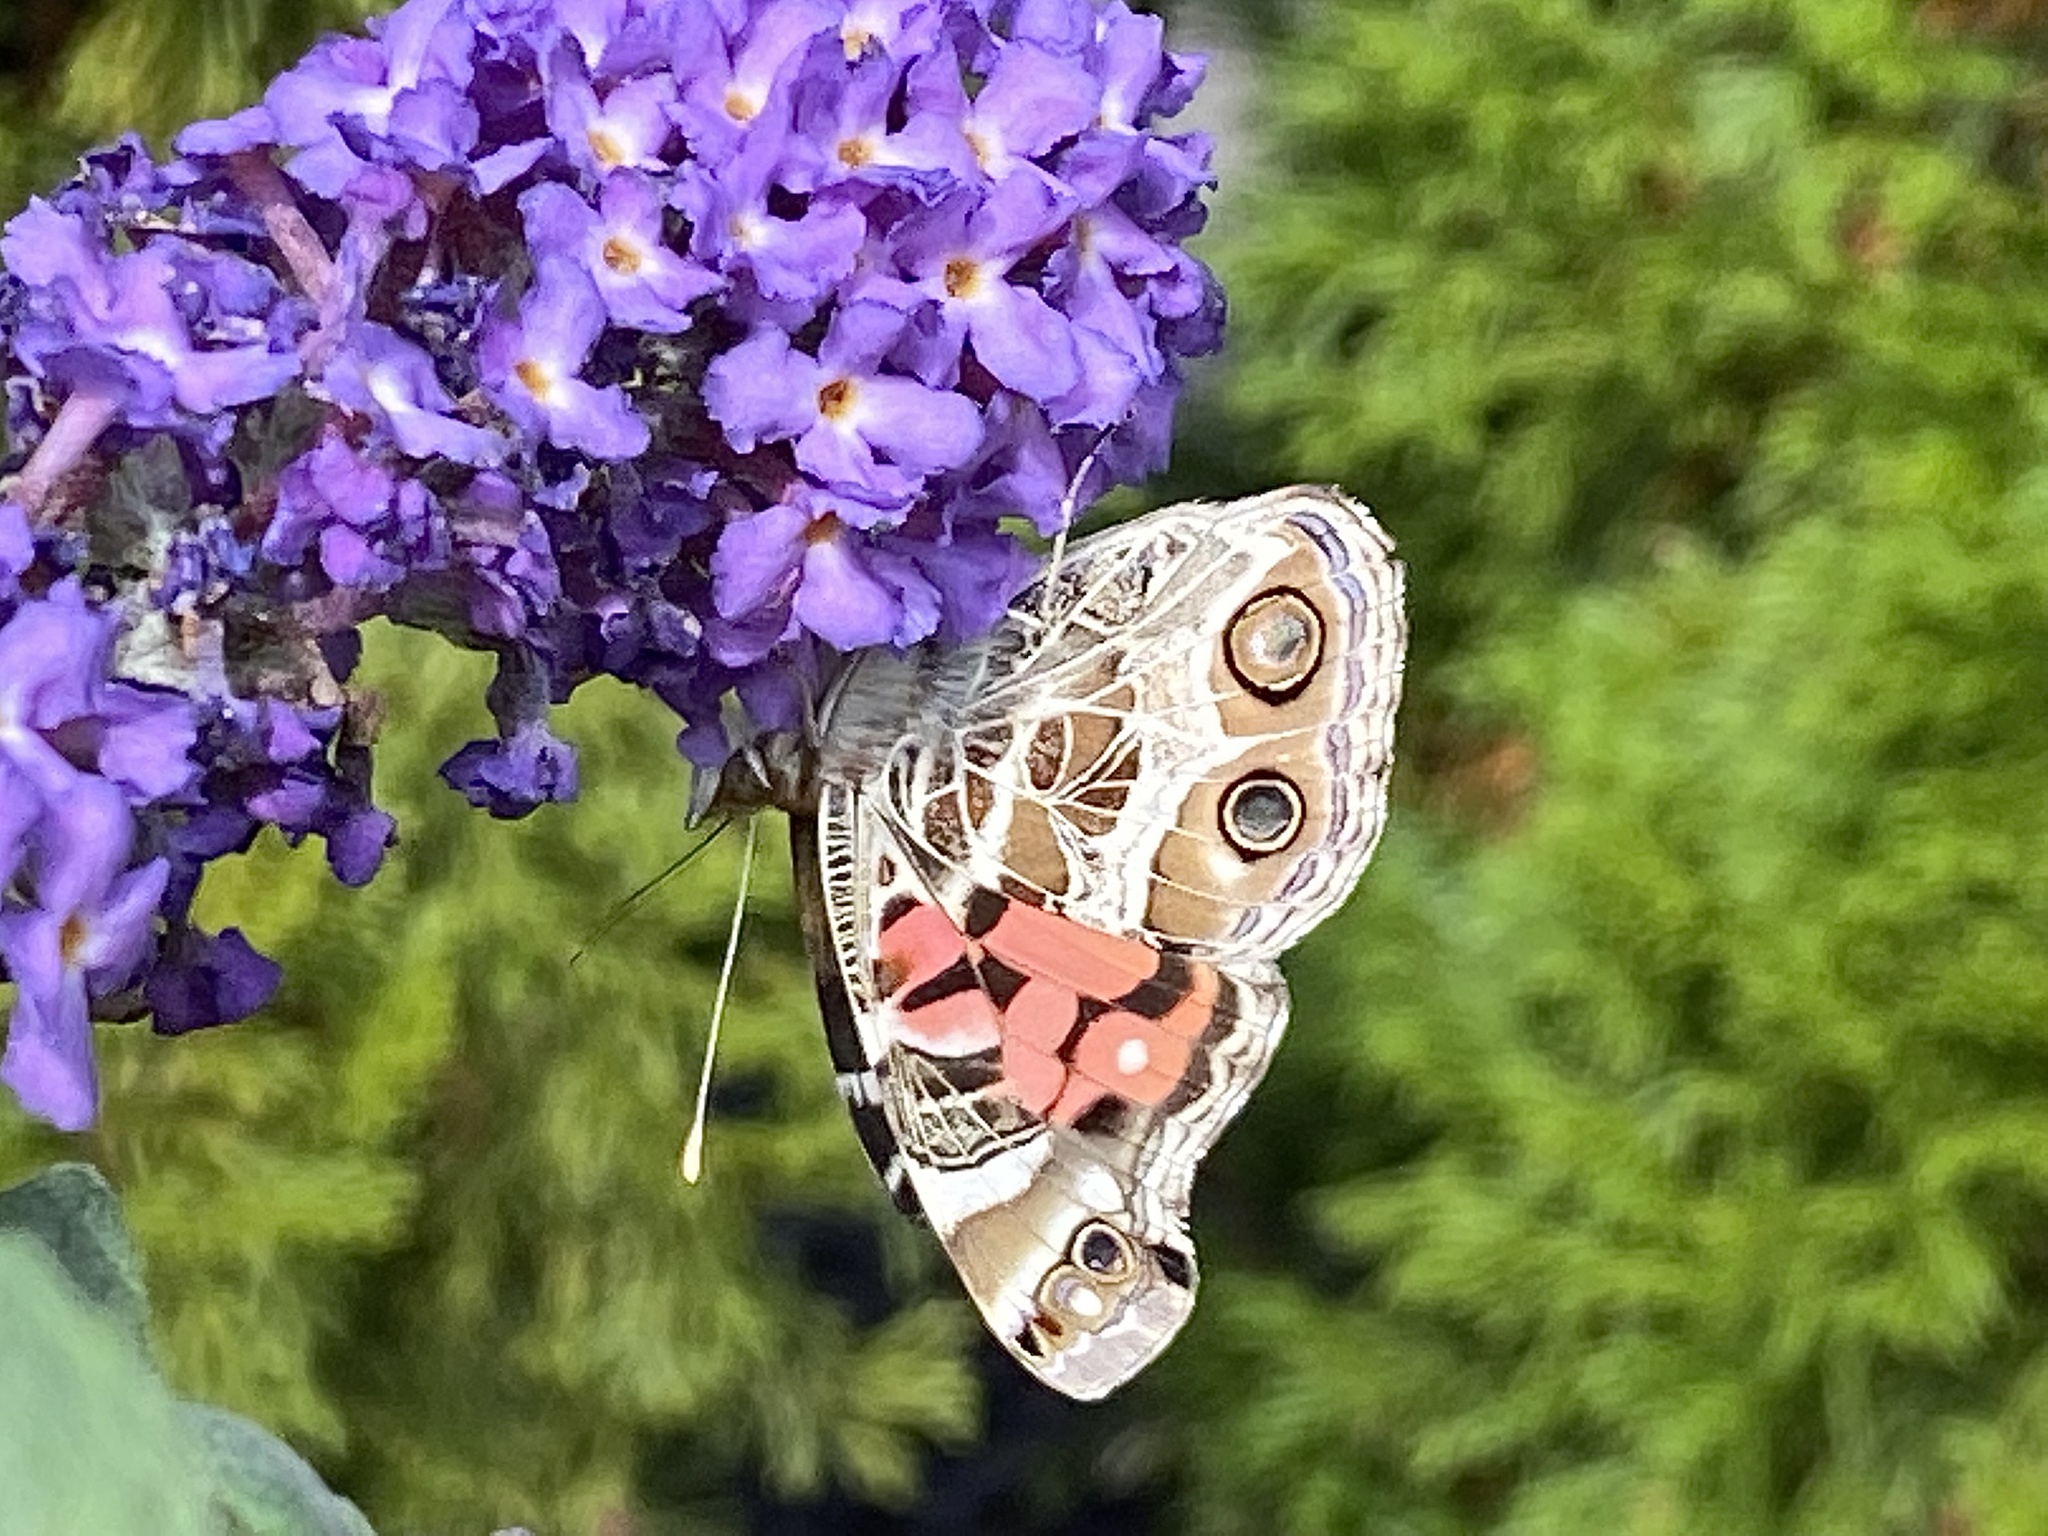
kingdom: Animalia
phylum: Arthropoda
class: Insecta
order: Lepidoptera
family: Nymphalidae
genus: Vanessa
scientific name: Vanessa virginiensis
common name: American lady
